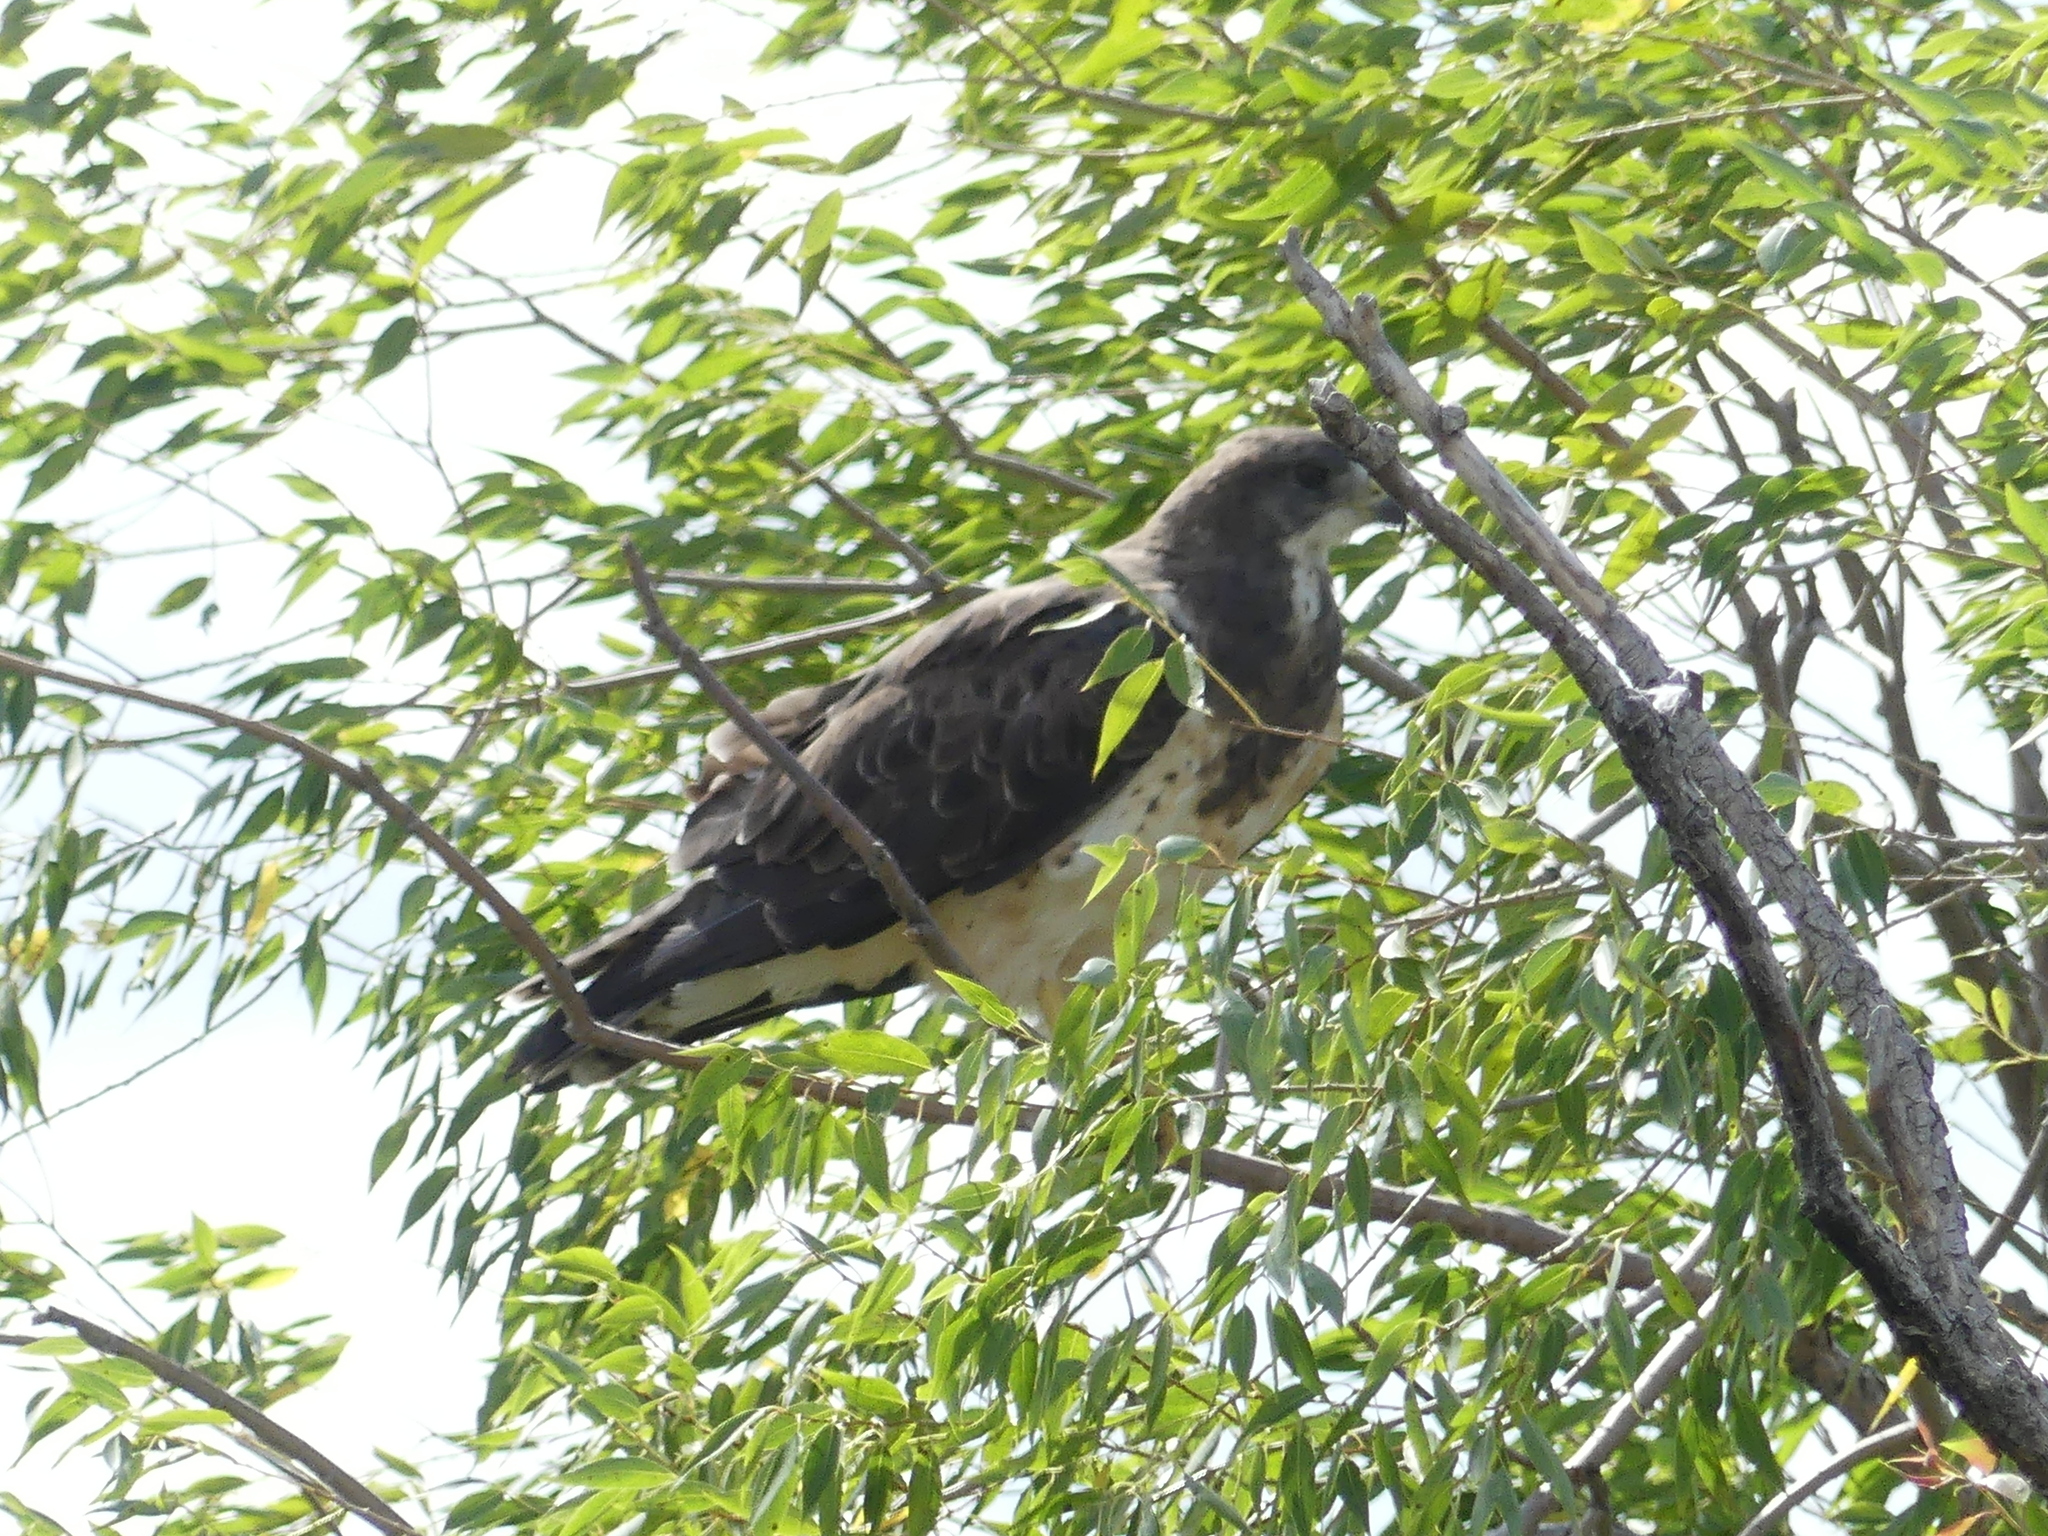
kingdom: Animalia
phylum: Chordata
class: Aves
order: Accipitriformes
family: Accipitridae
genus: Buteo
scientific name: Buteo swainsoni
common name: Swainson's hawk
